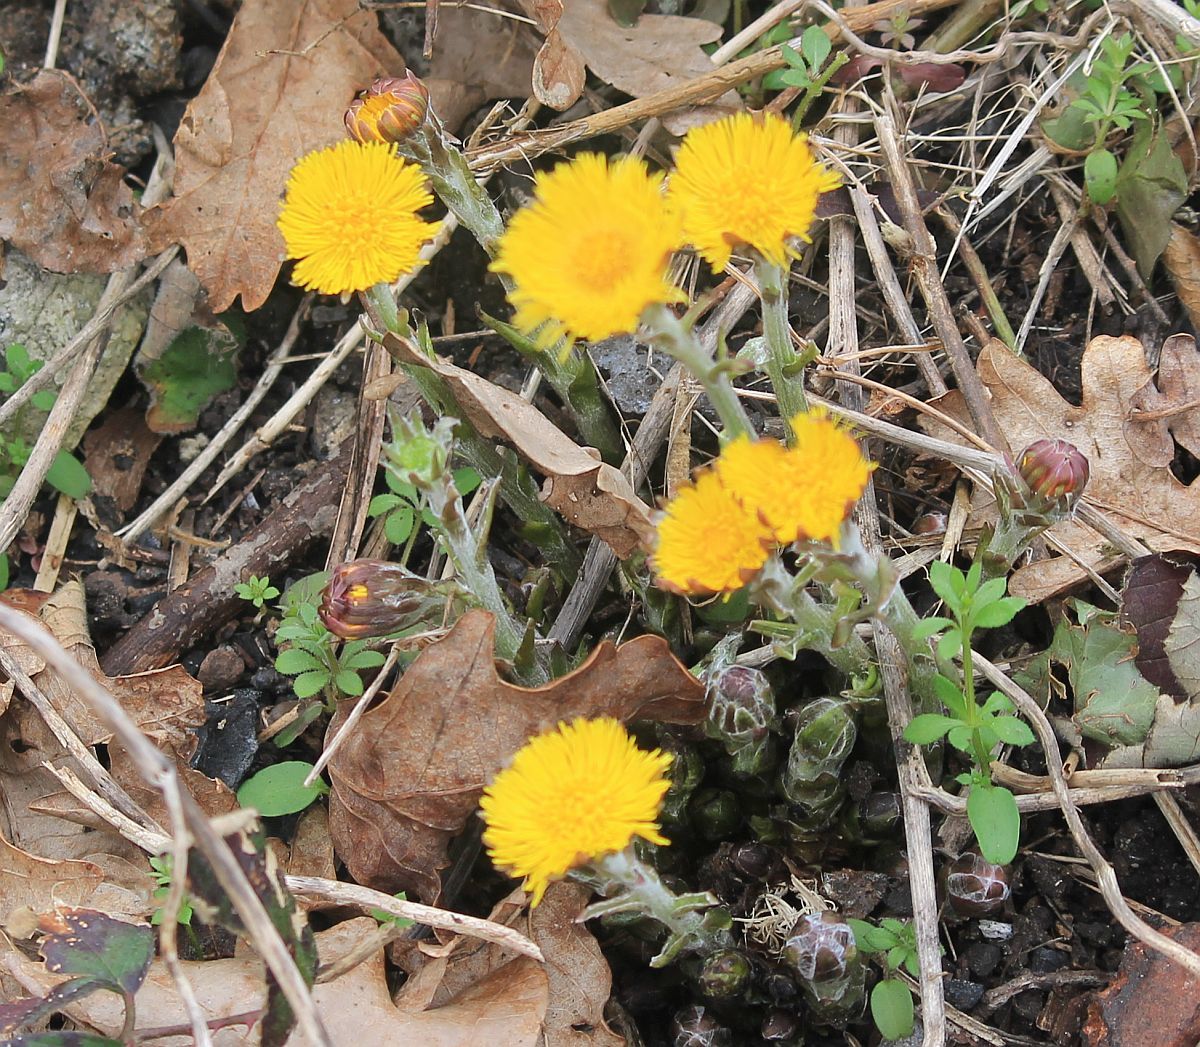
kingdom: Plantae
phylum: Tracheophyta
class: Magnoliopsida
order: Asterales
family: Asteraceae
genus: Tussilago
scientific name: Tussilago farfara
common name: Coltsfoot
